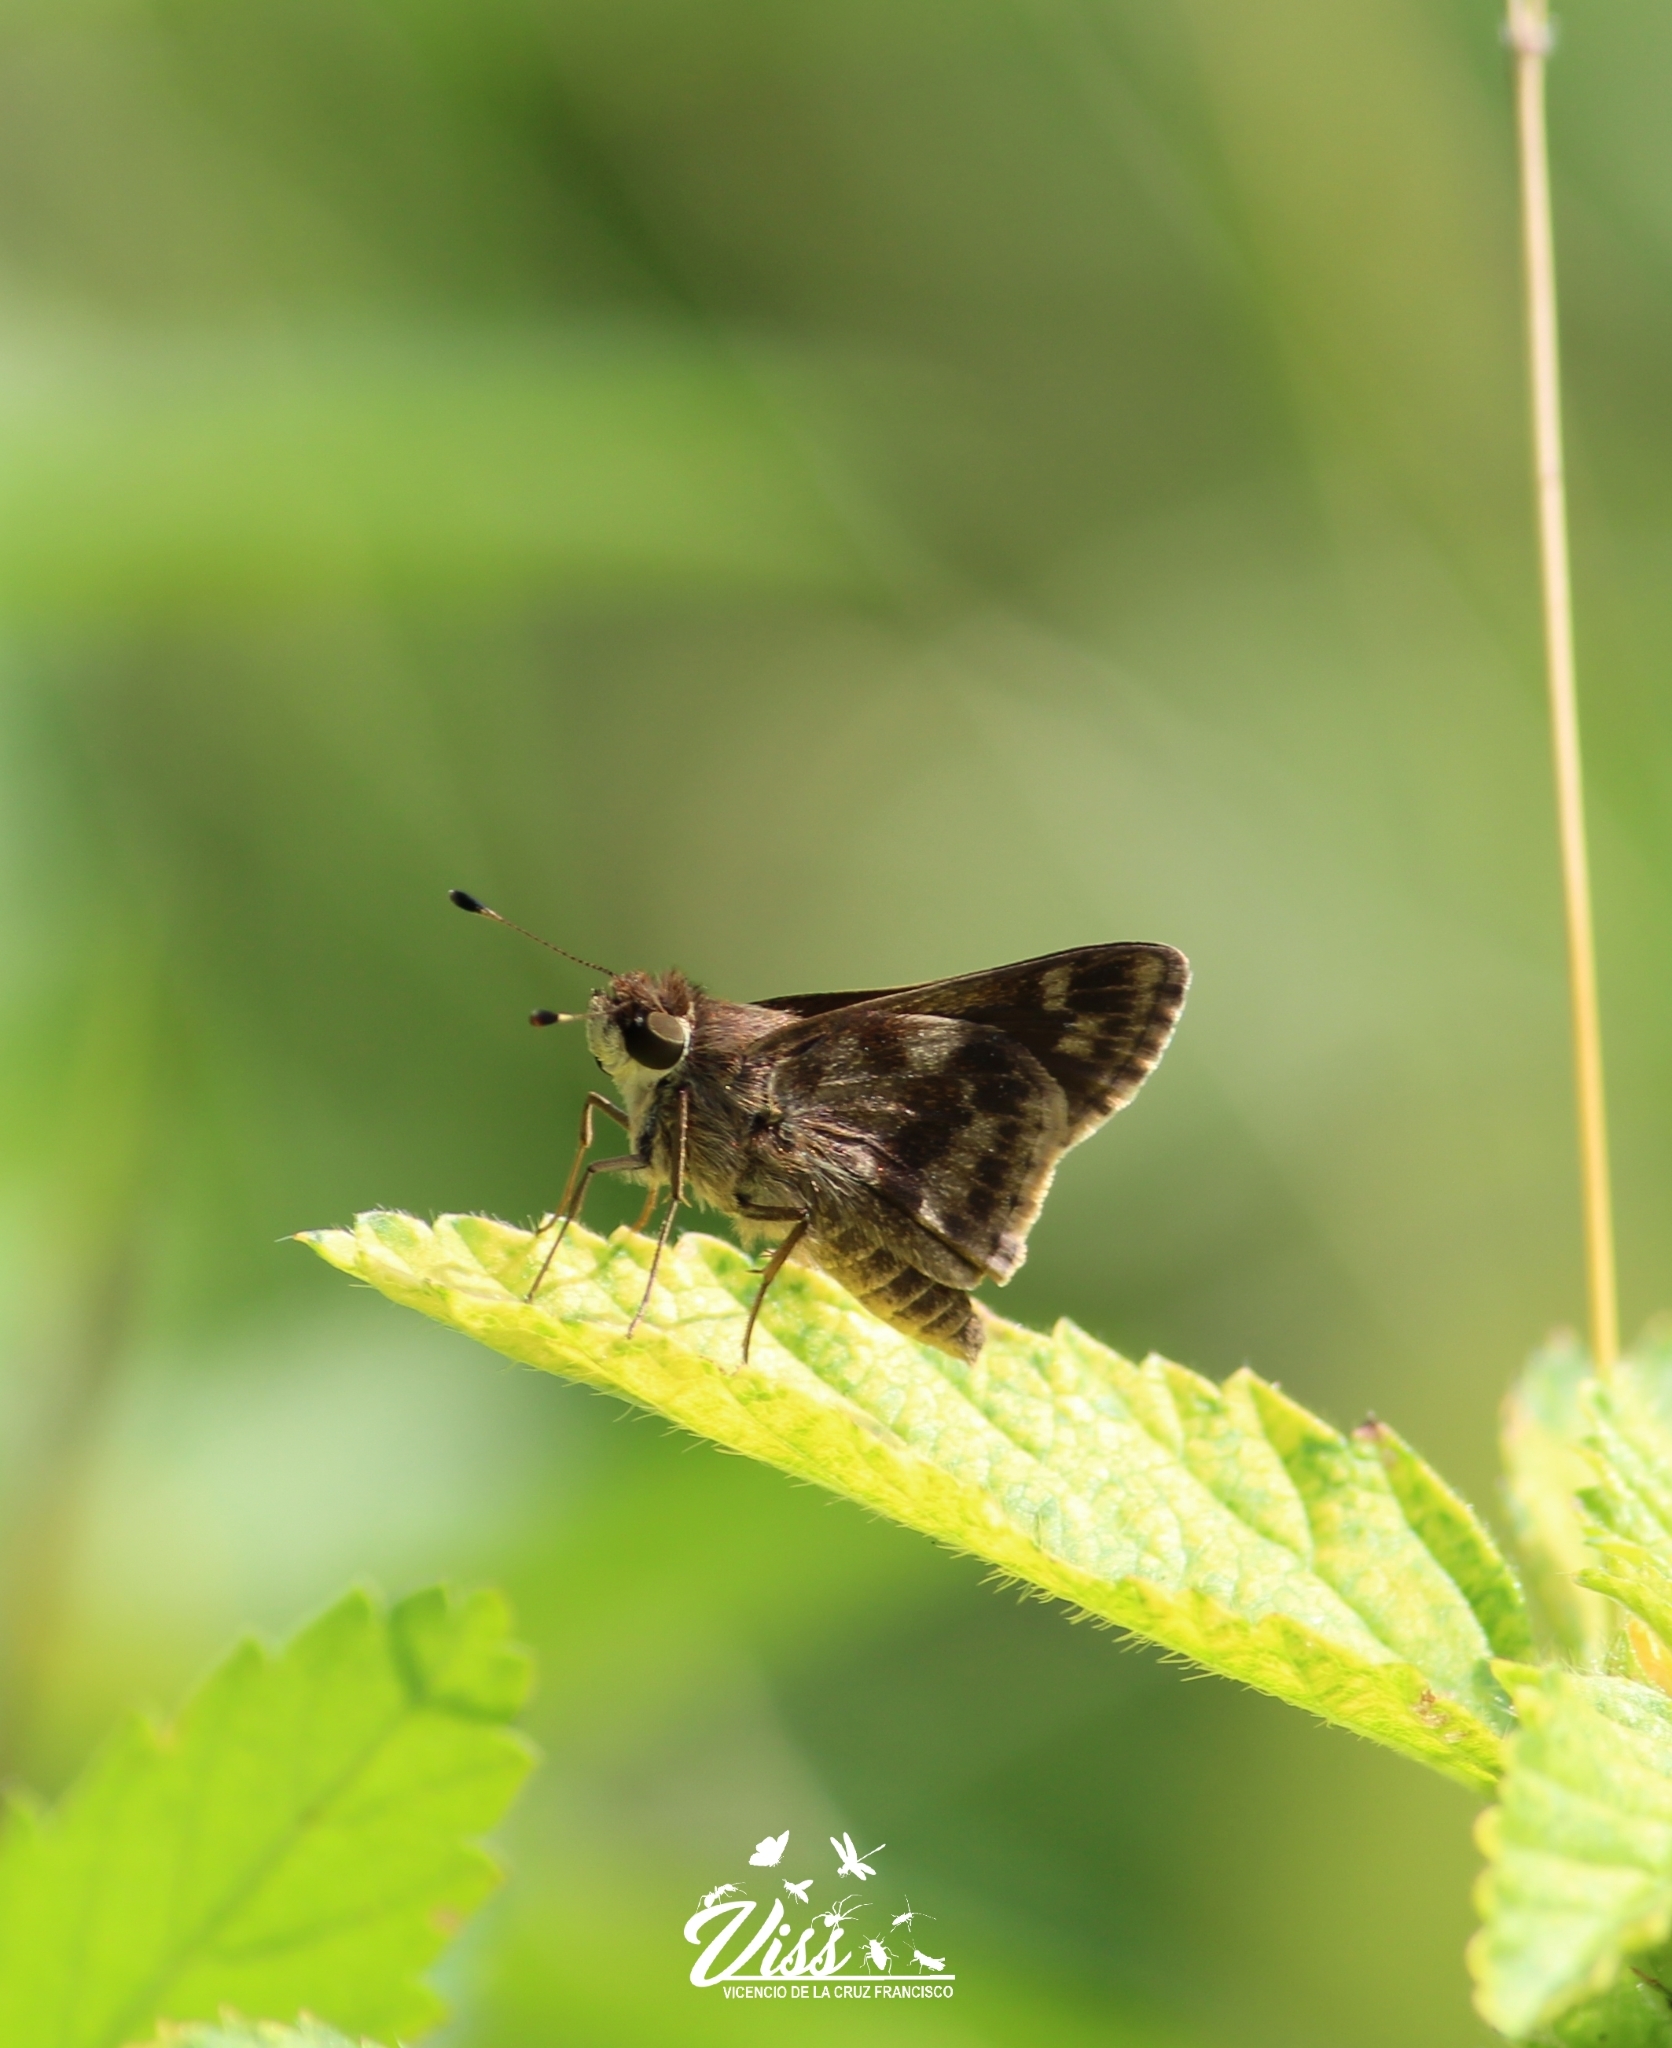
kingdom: Animalia
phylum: Arthropoda
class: Insecta
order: Lepidoptera
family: Hesperiidae
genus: Pompeius
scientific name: Pompeius pompeius
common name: Pompeius skipper
